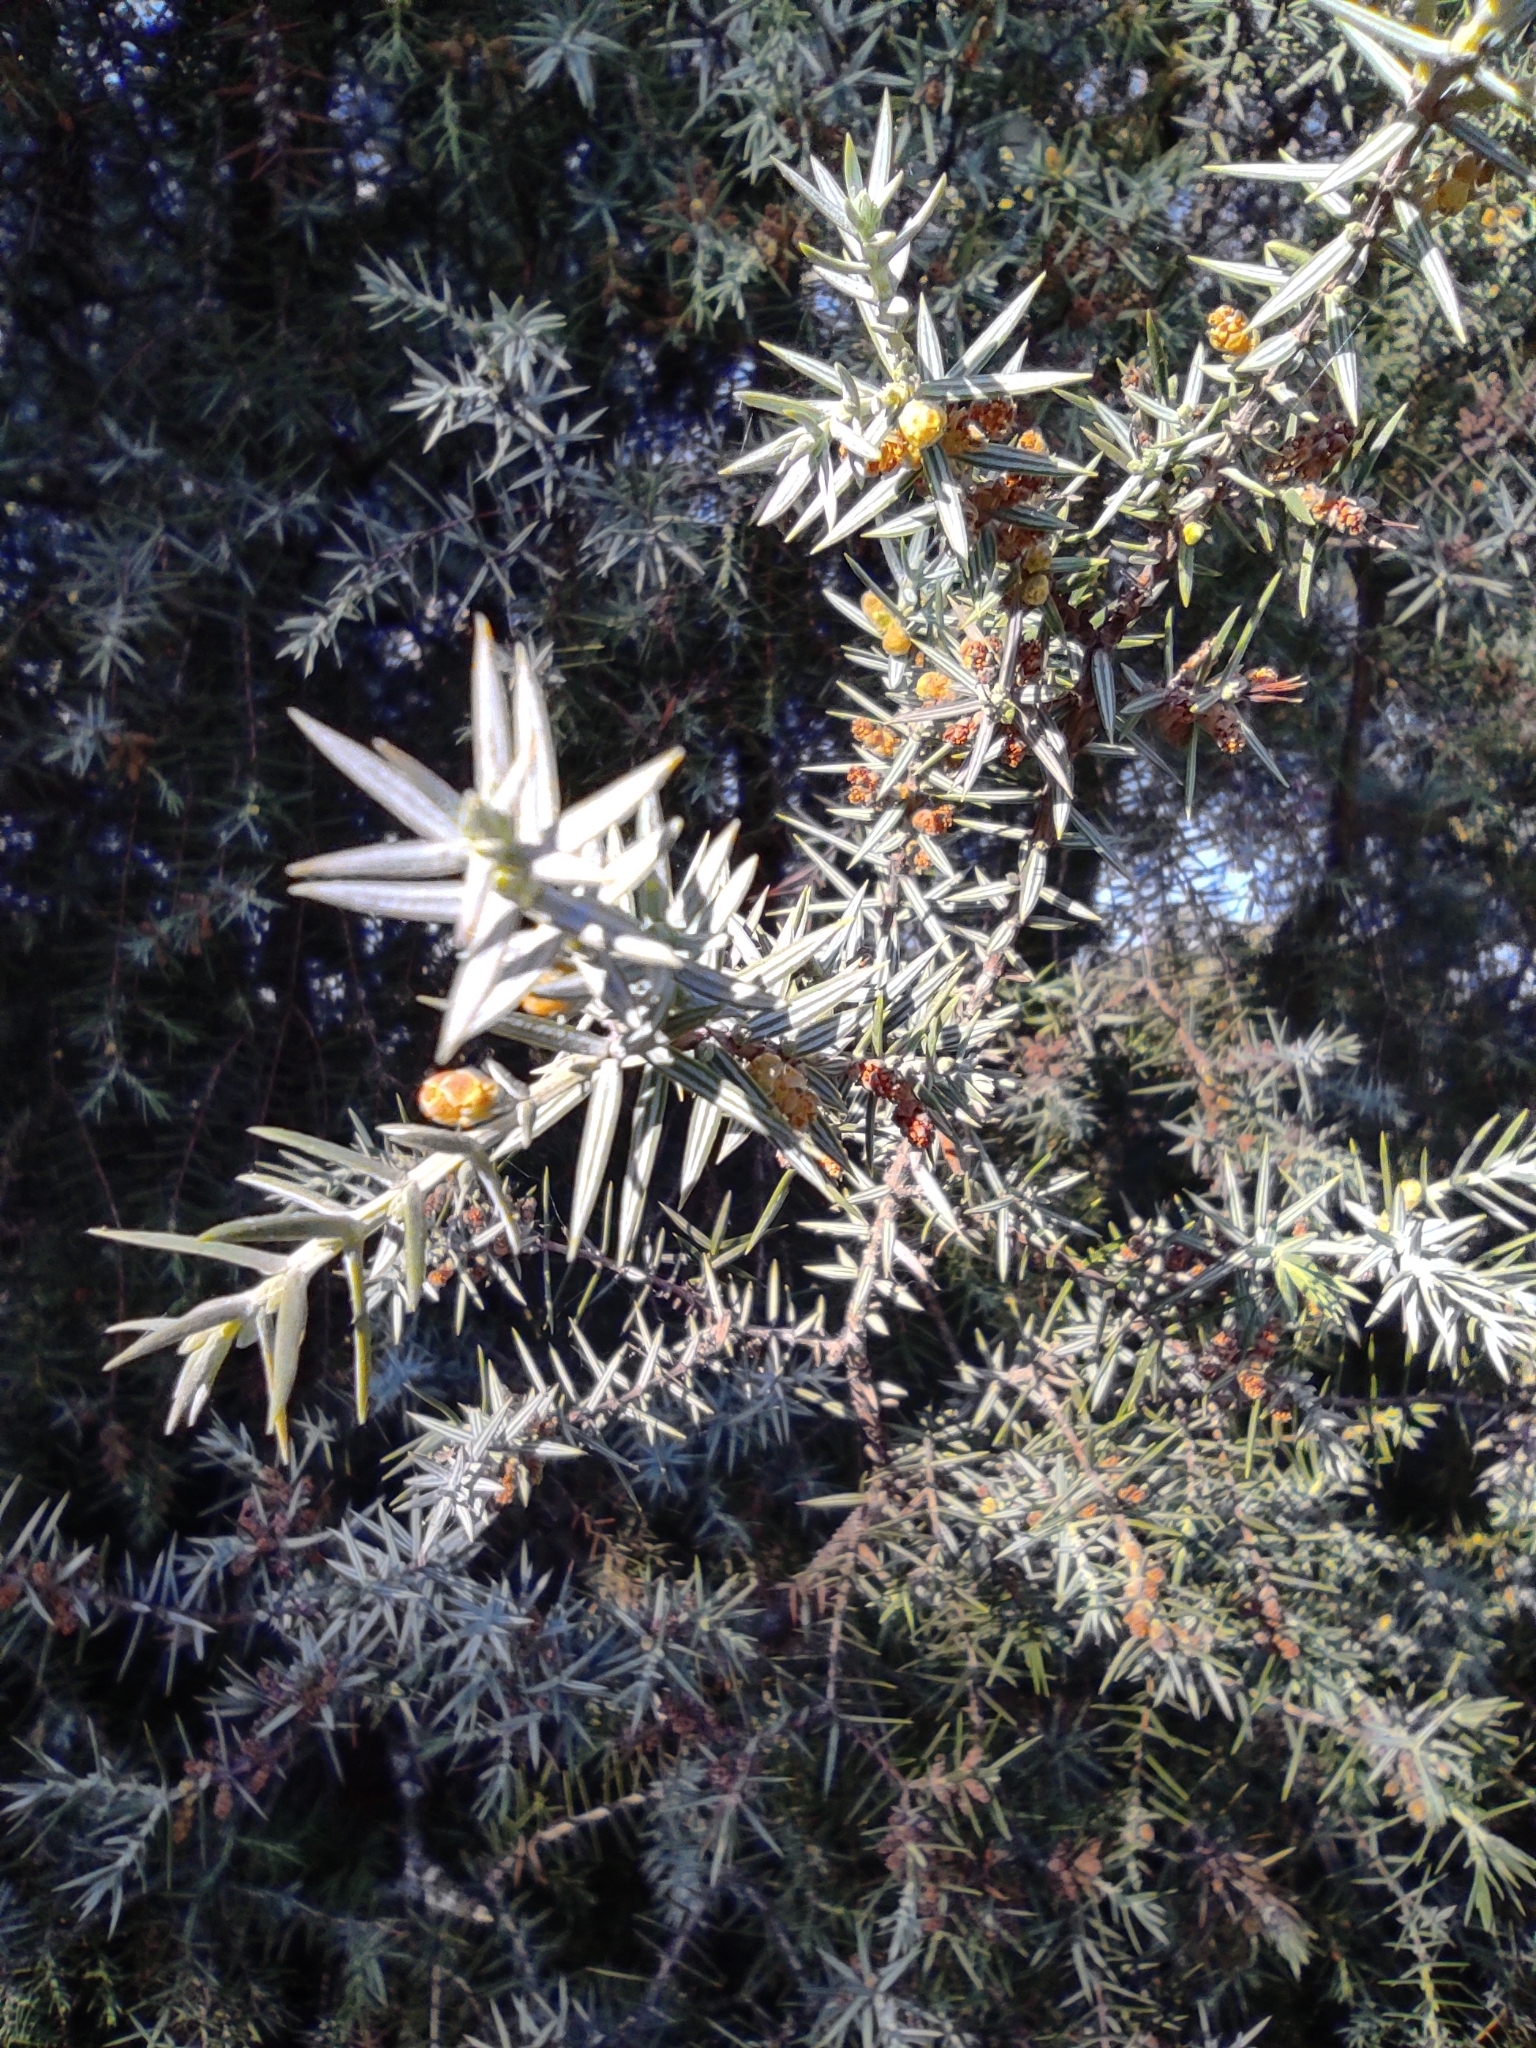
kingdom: Plantae
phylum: Tracheophyta
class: Pinopsida
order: Pinales
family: Cupressaceae
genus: Juniperus
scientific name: Juniperus oxycedrus
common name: Prickly juniper
